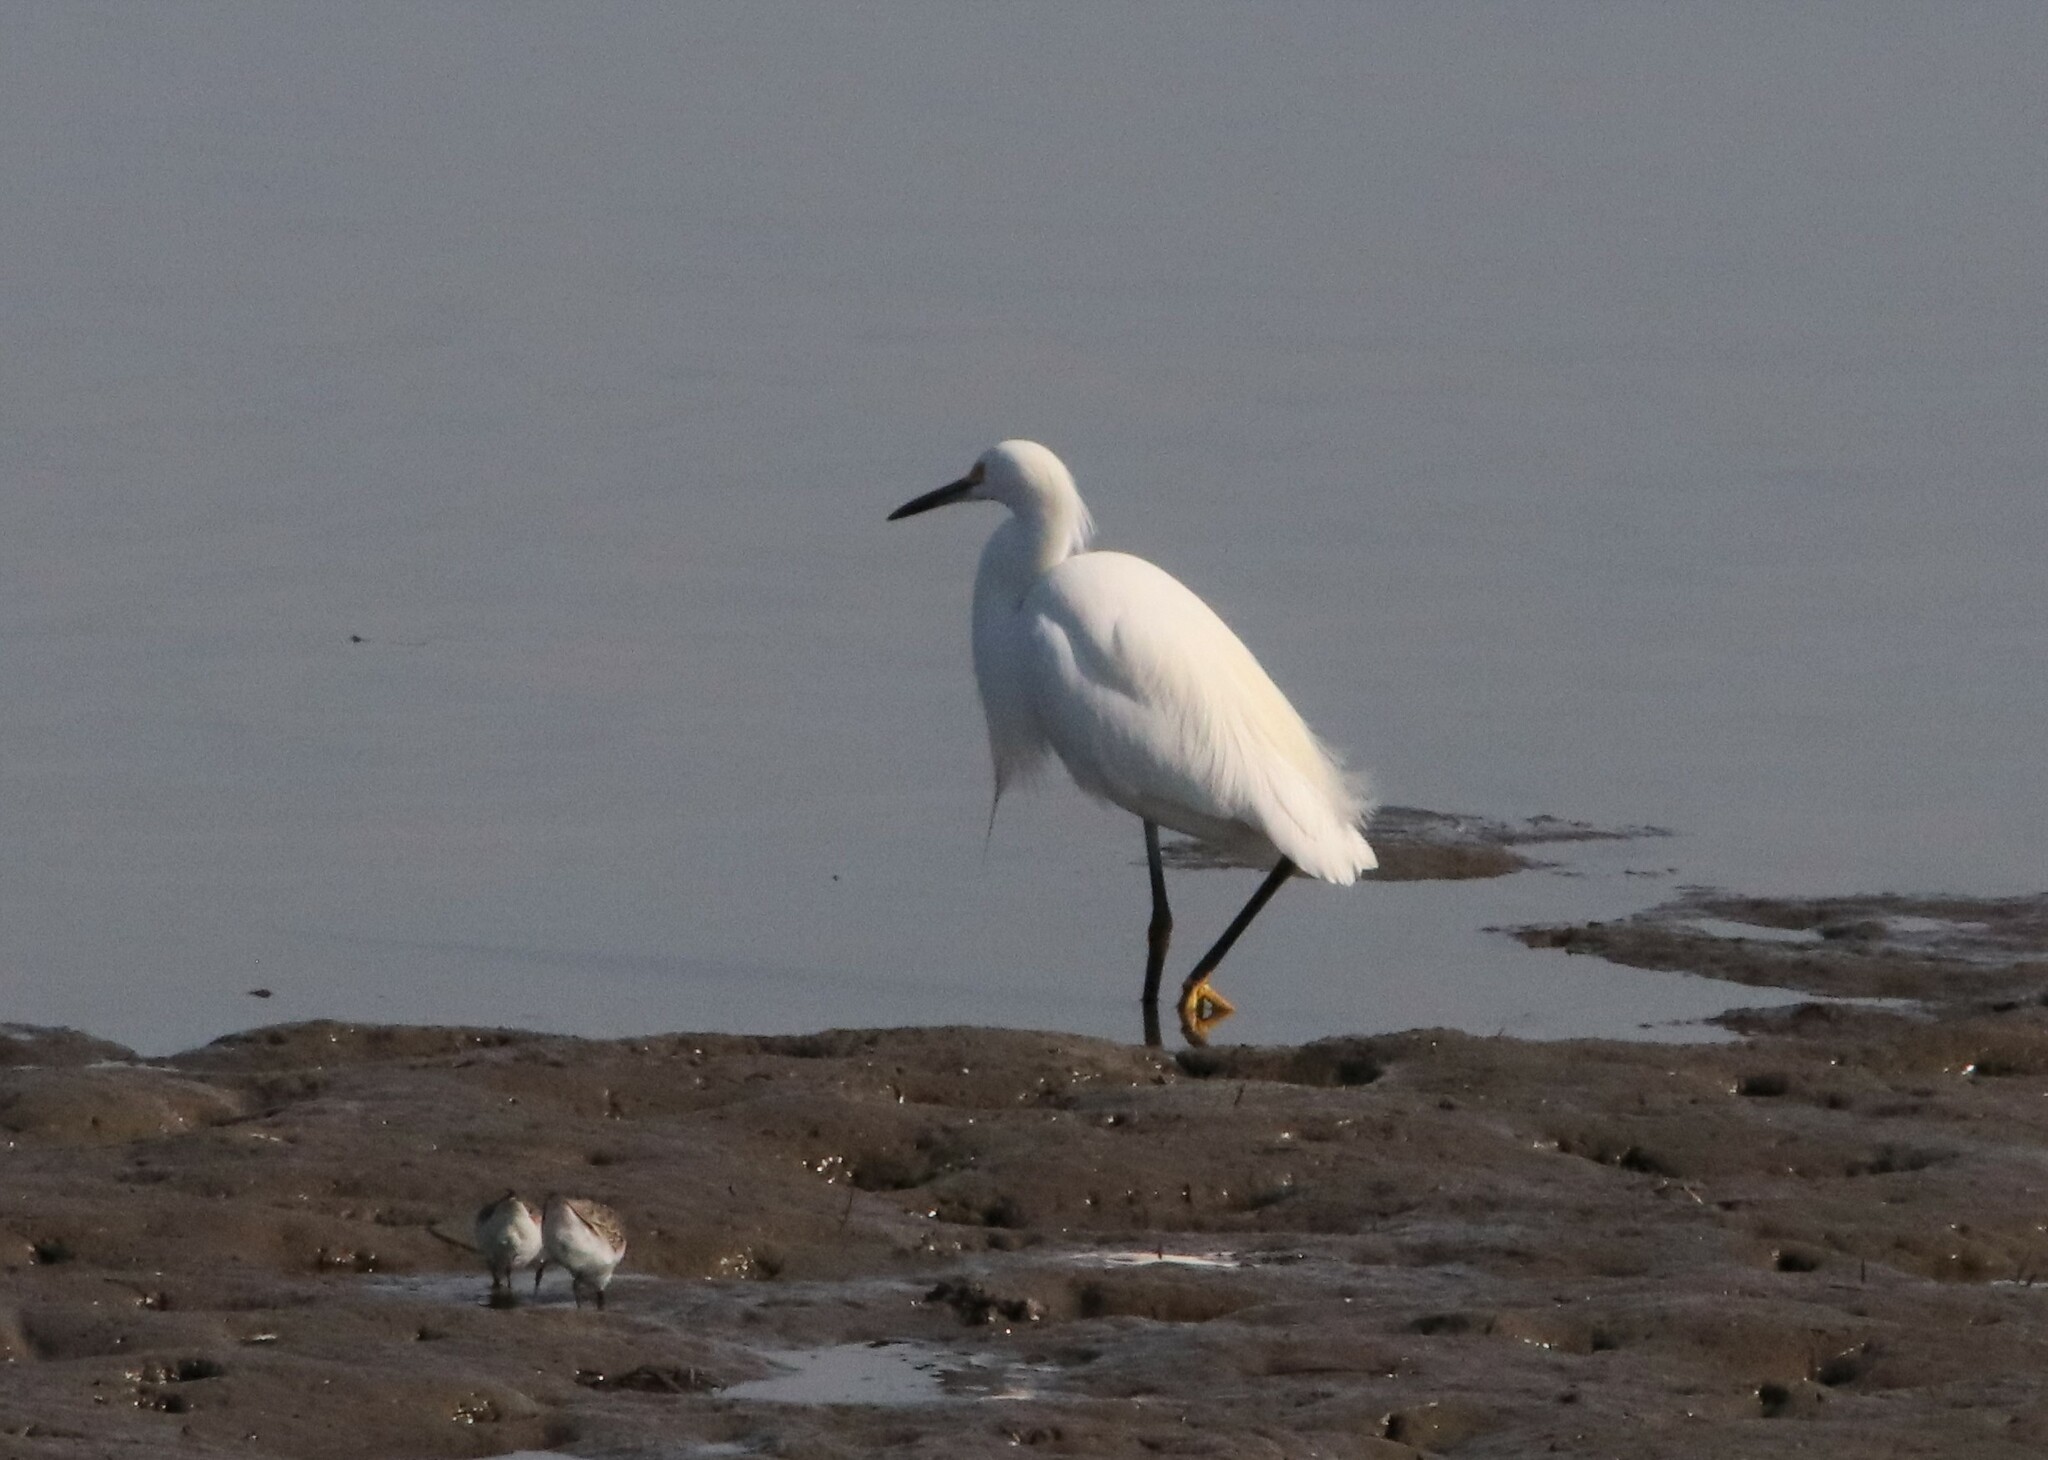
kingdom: Animalia
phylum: Chordata
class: Aves
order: Pelecaniformes
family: Ardeidae
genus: Egretta
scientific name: Egretta thula
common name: Snowy egret
